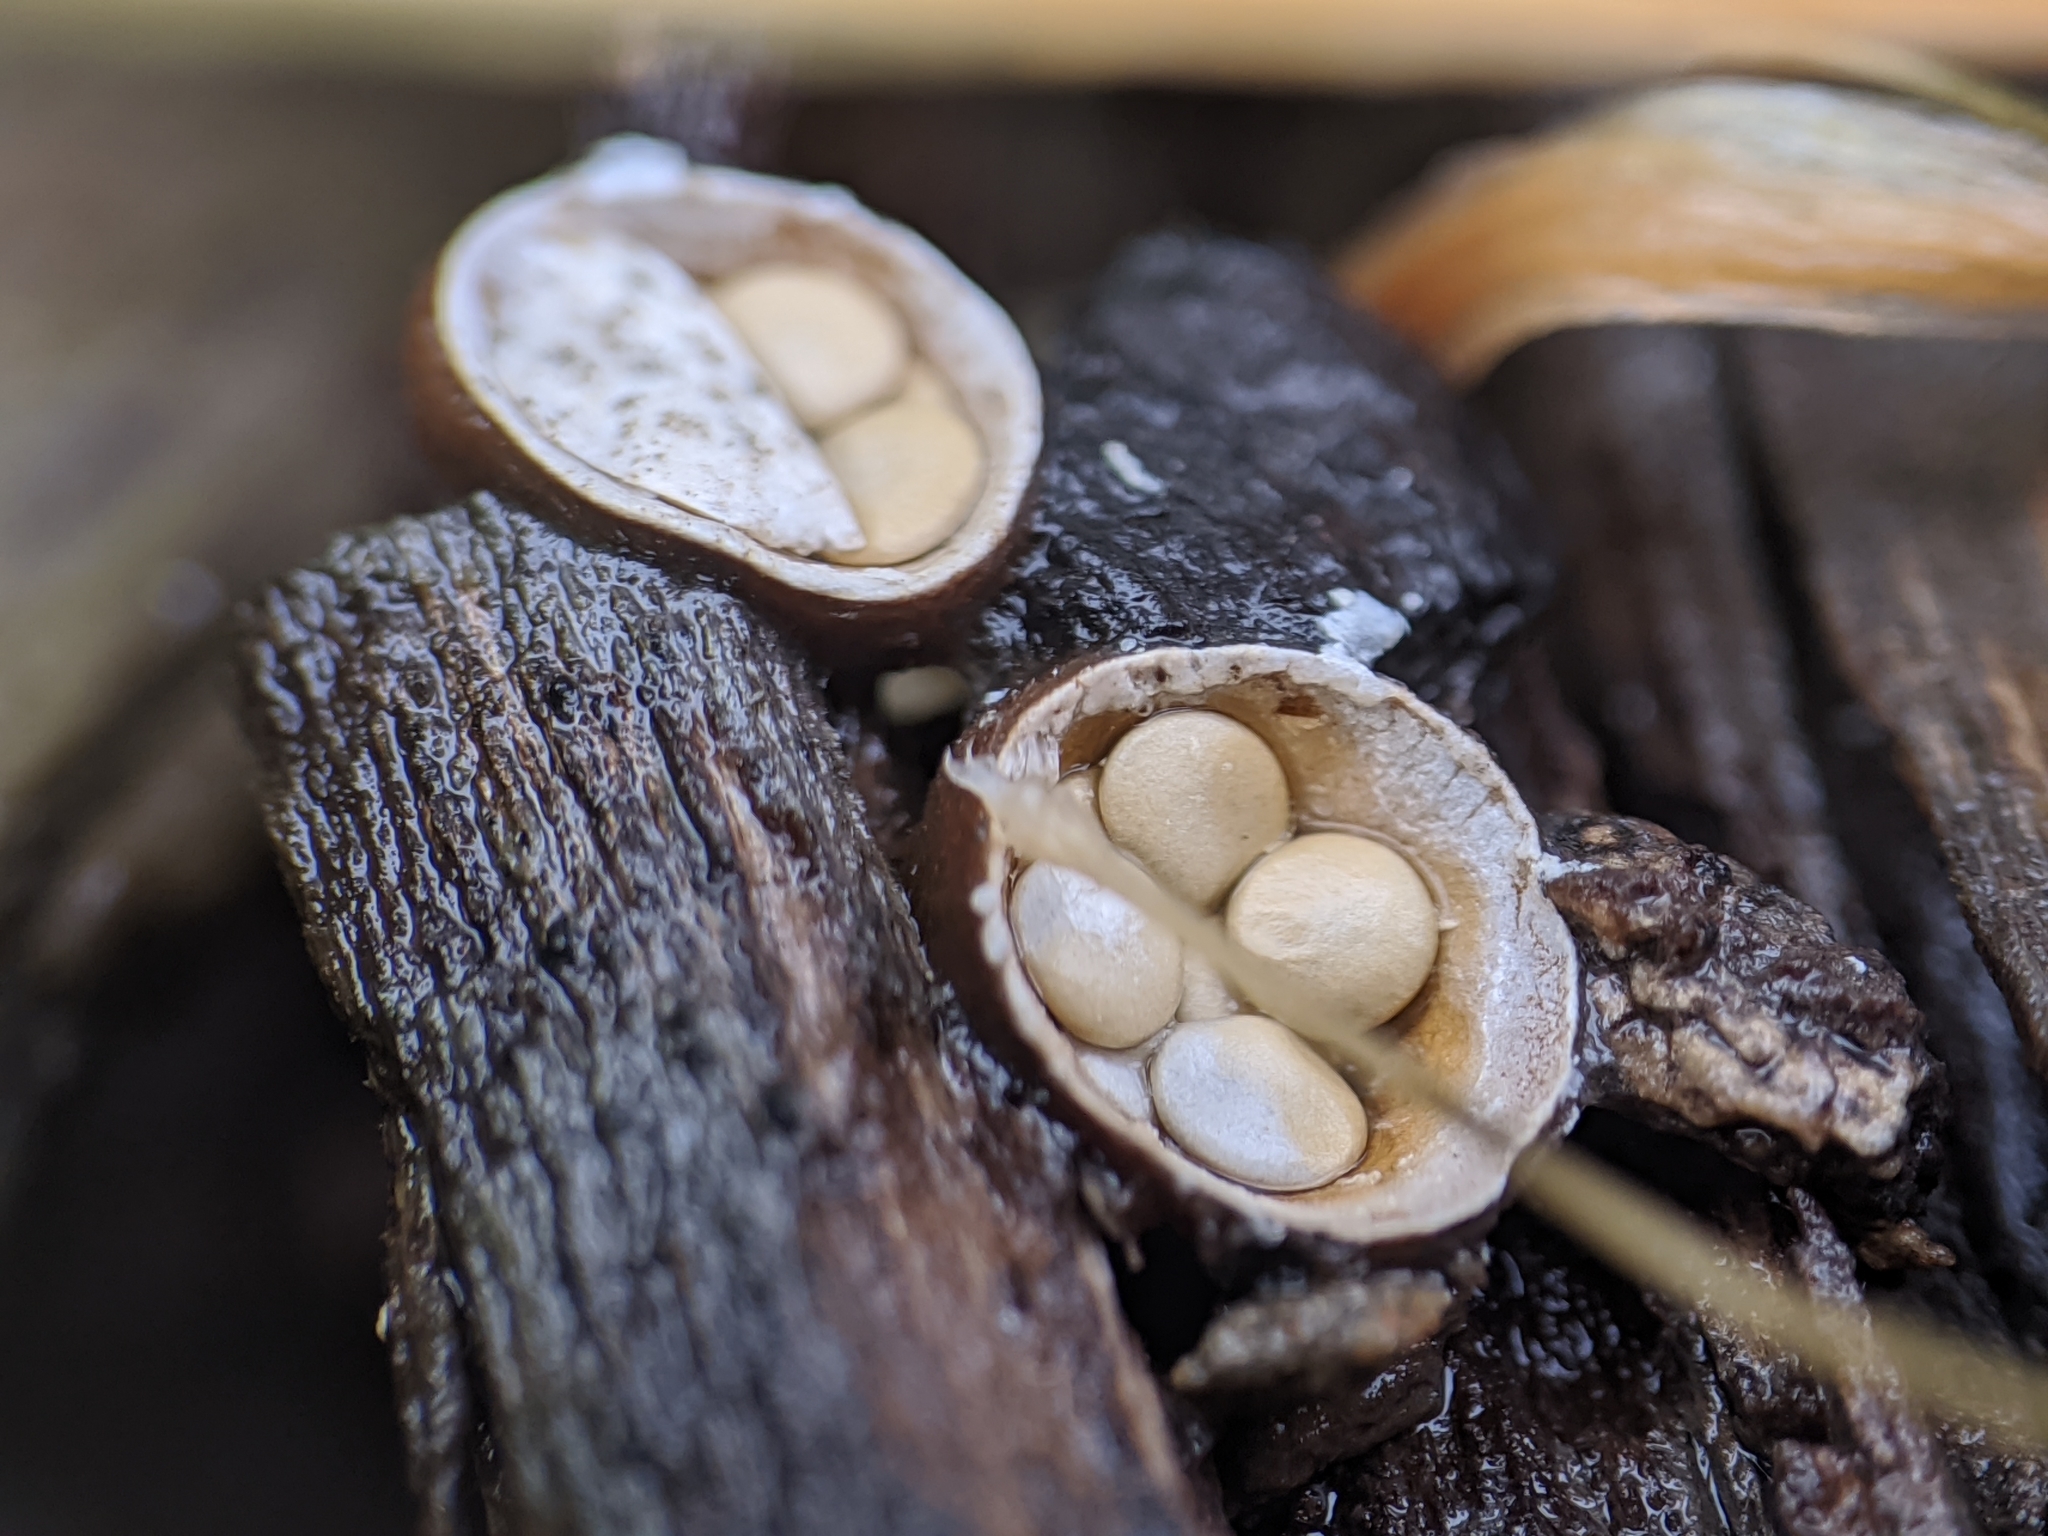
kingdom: Fungi
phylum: Basidiomycota
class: Agaricomycetes
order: Agaricales
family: Nidulariaceae
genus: Crucibulum
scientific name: Crucibulum laeve
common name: Common bird's nest
